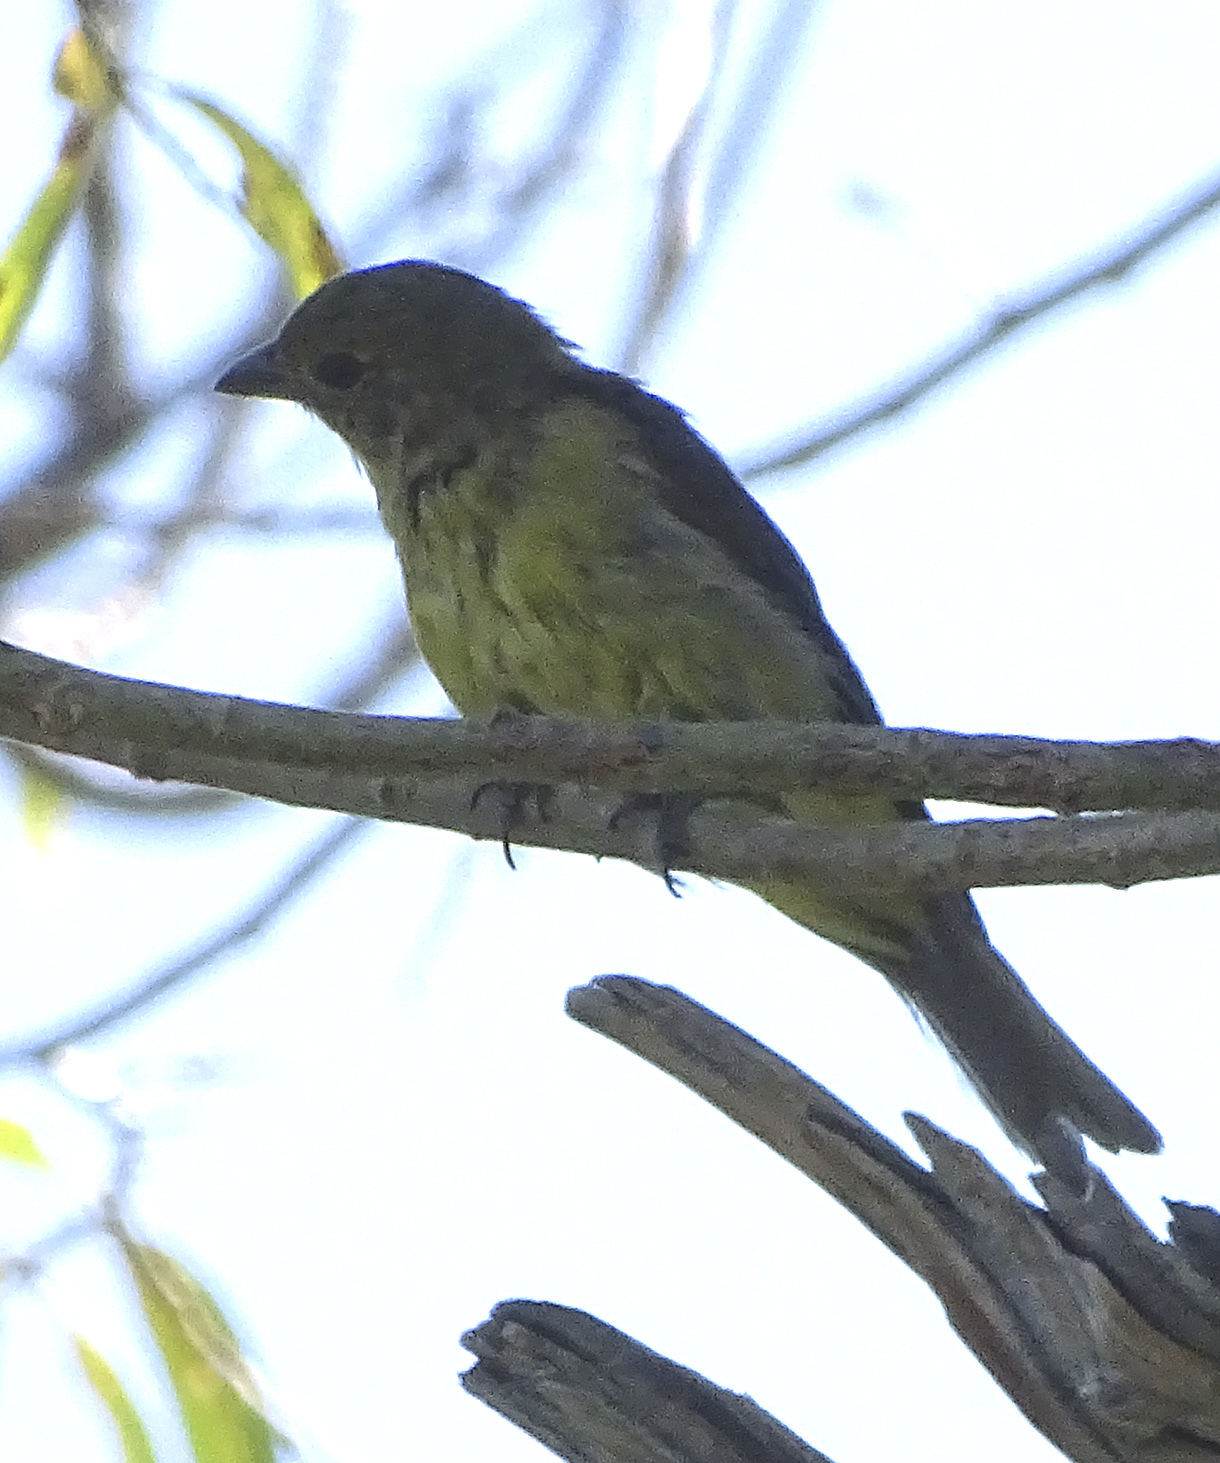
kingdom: Animalia
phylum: Chordata
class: Aves
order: Passeriformes
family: Cardinalidae
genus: Piranga
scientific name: Piranga olivacea
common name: Scarlet tanager
